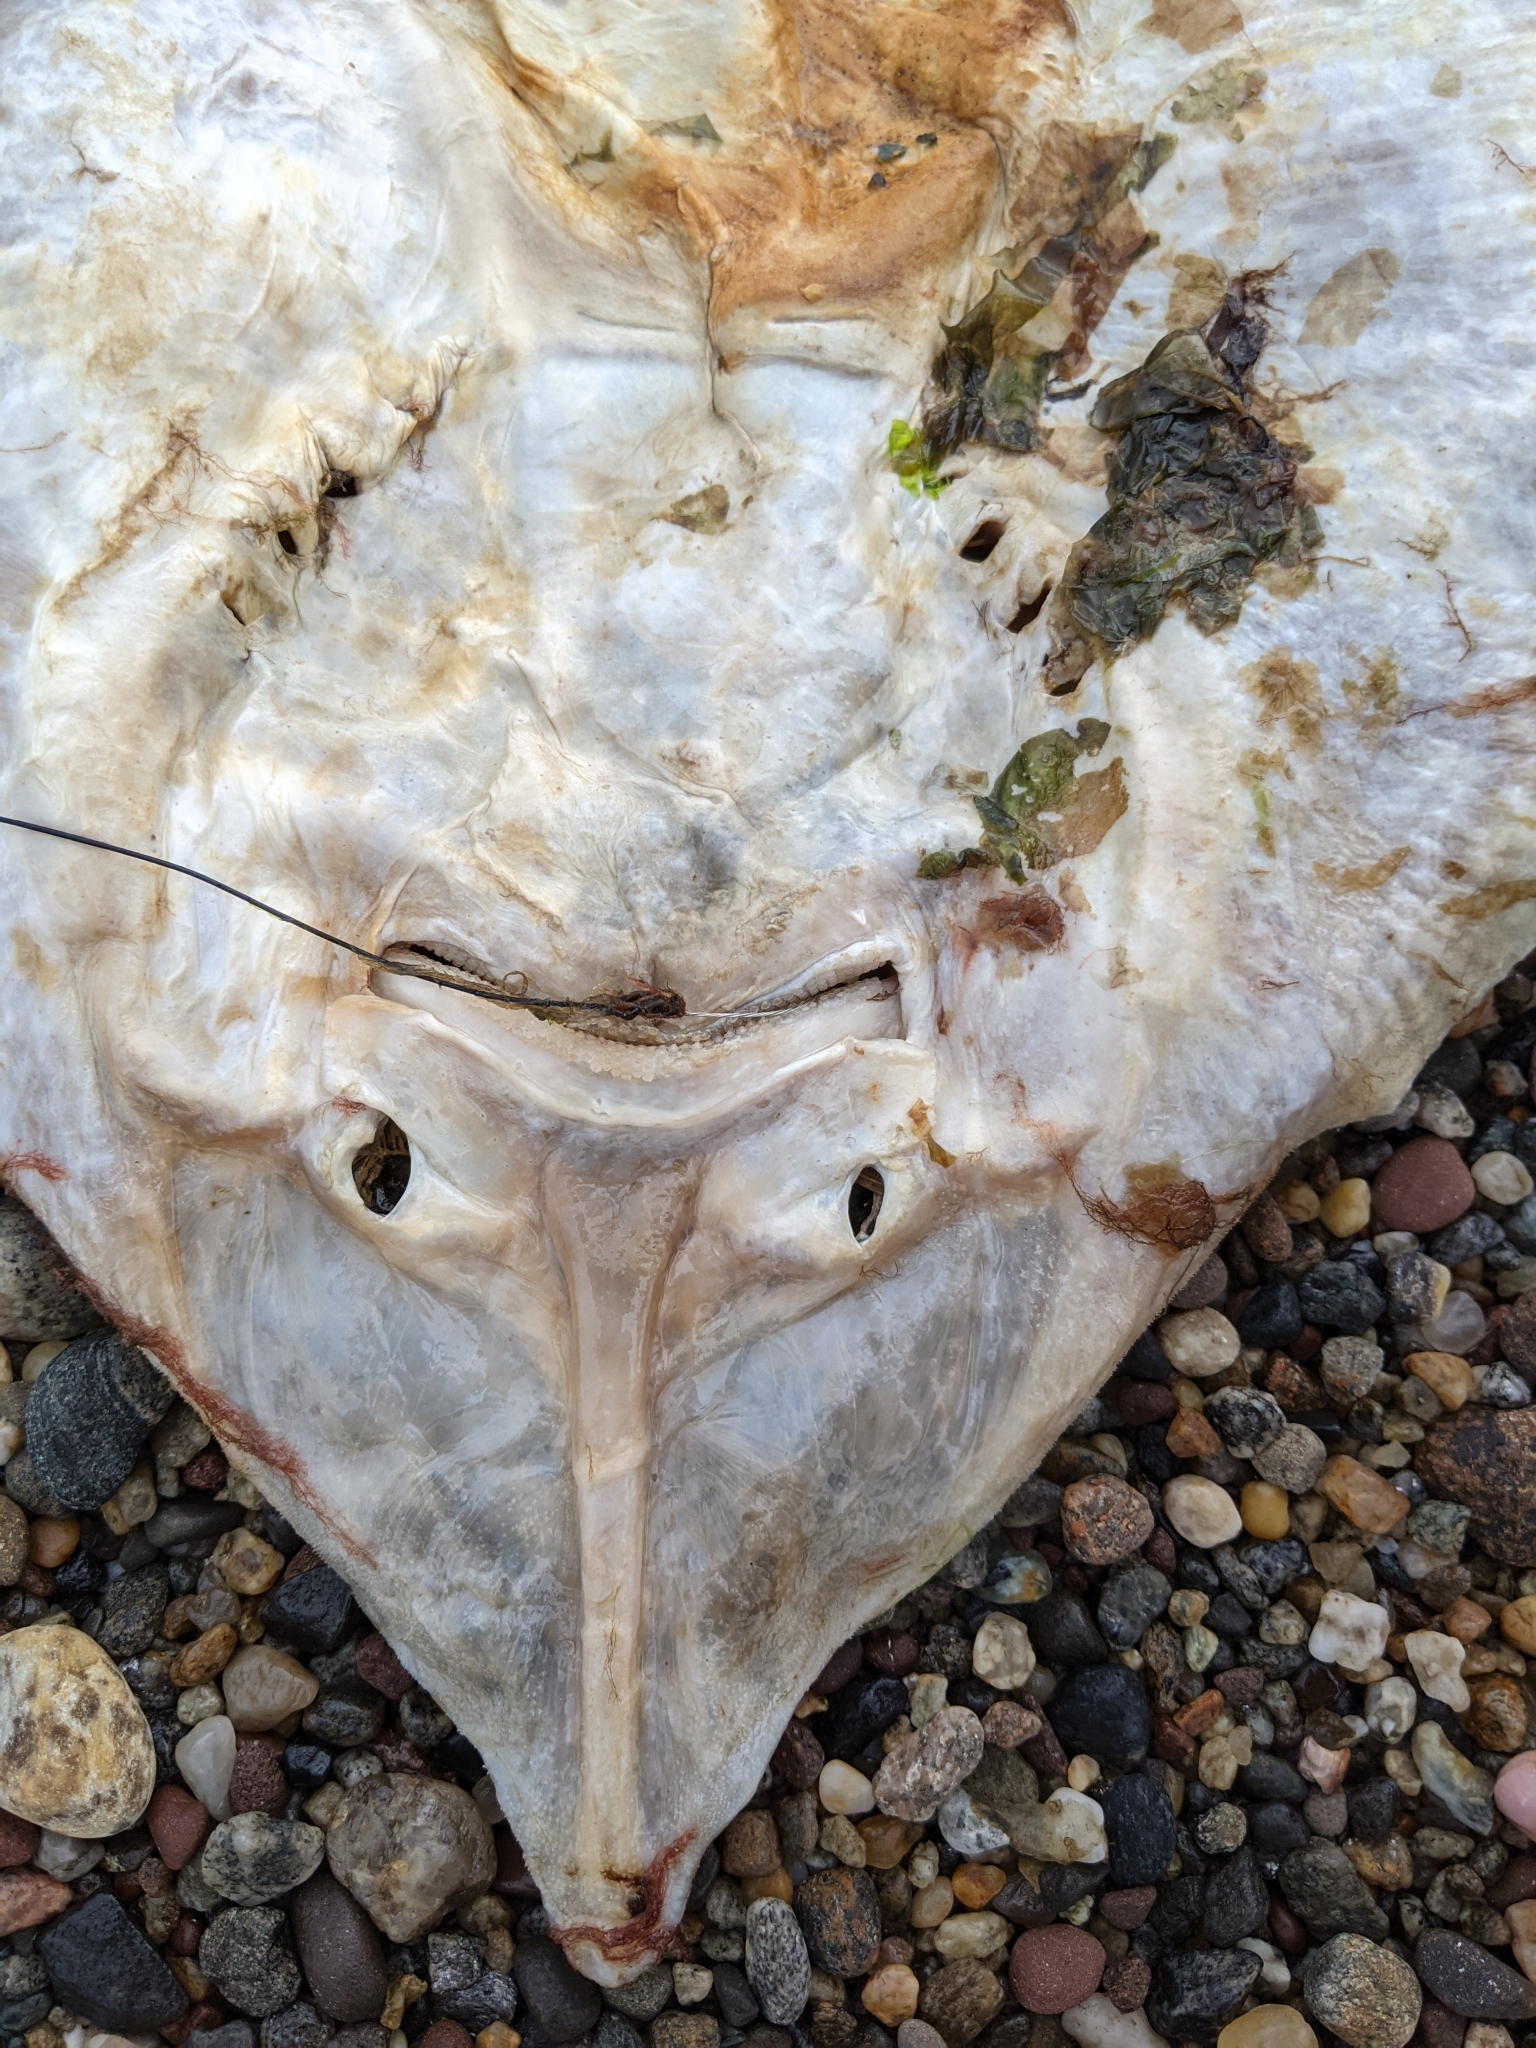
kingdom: Animalia
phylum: Chordata
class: Elasmobranchii
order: Rajiformes
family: Rajidae
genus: Raja
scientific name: Raja eglanteria
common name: Clearnose skate
